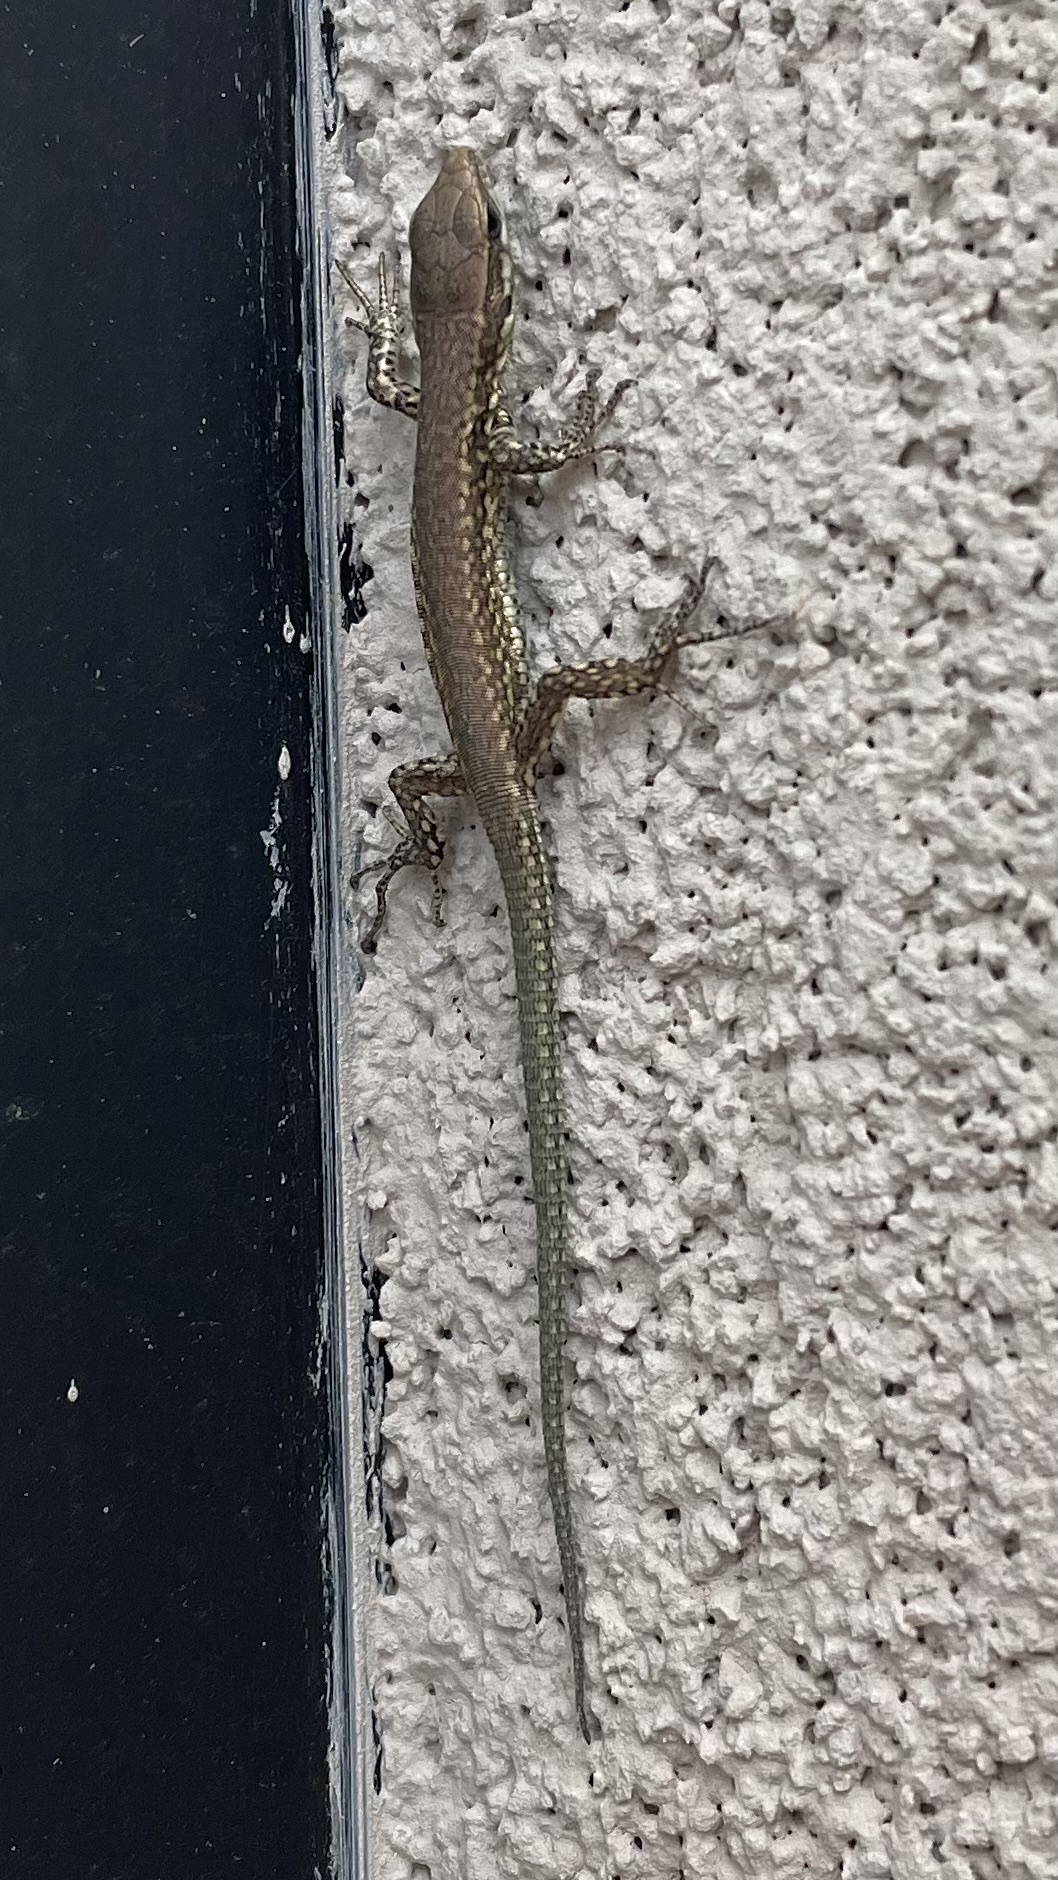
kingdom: Animalia
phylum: Chordata
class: Squamata
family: Lacertidae
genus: Podarcis
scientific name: Podarcis muralis
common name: Common wall lizard
